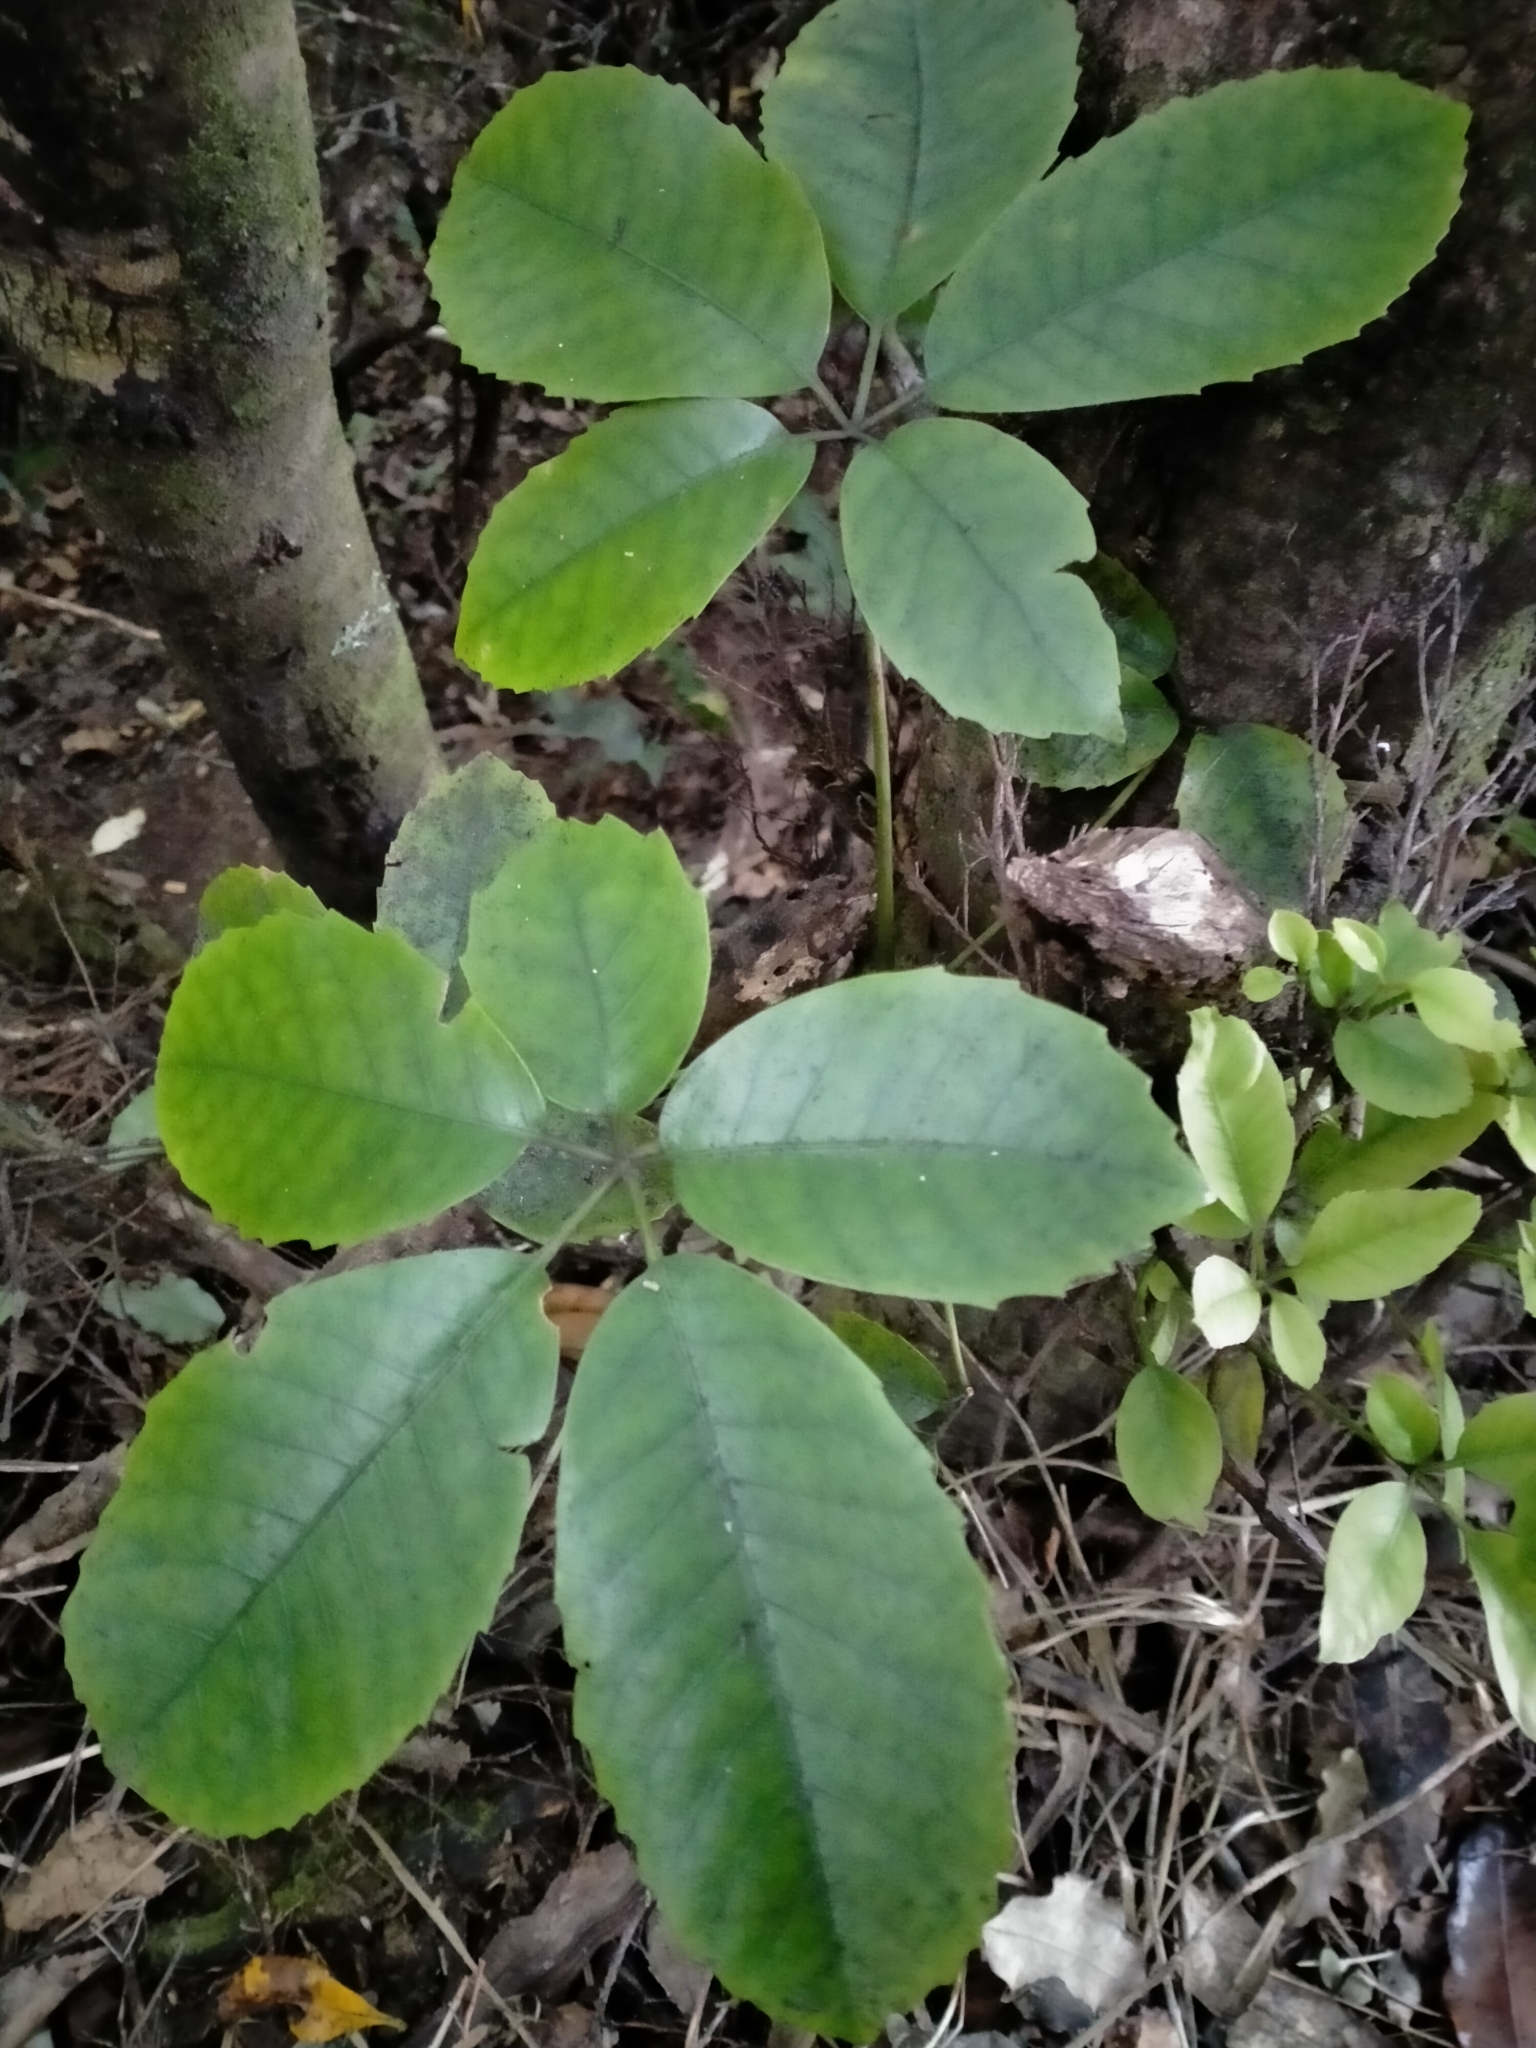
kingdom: Plantae
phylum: Tracheophyta
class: Magnoliopsida
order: Apiales
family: Araliaceae
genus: Neopanax
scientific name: Neopanax arboreus
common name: Five-fingers
